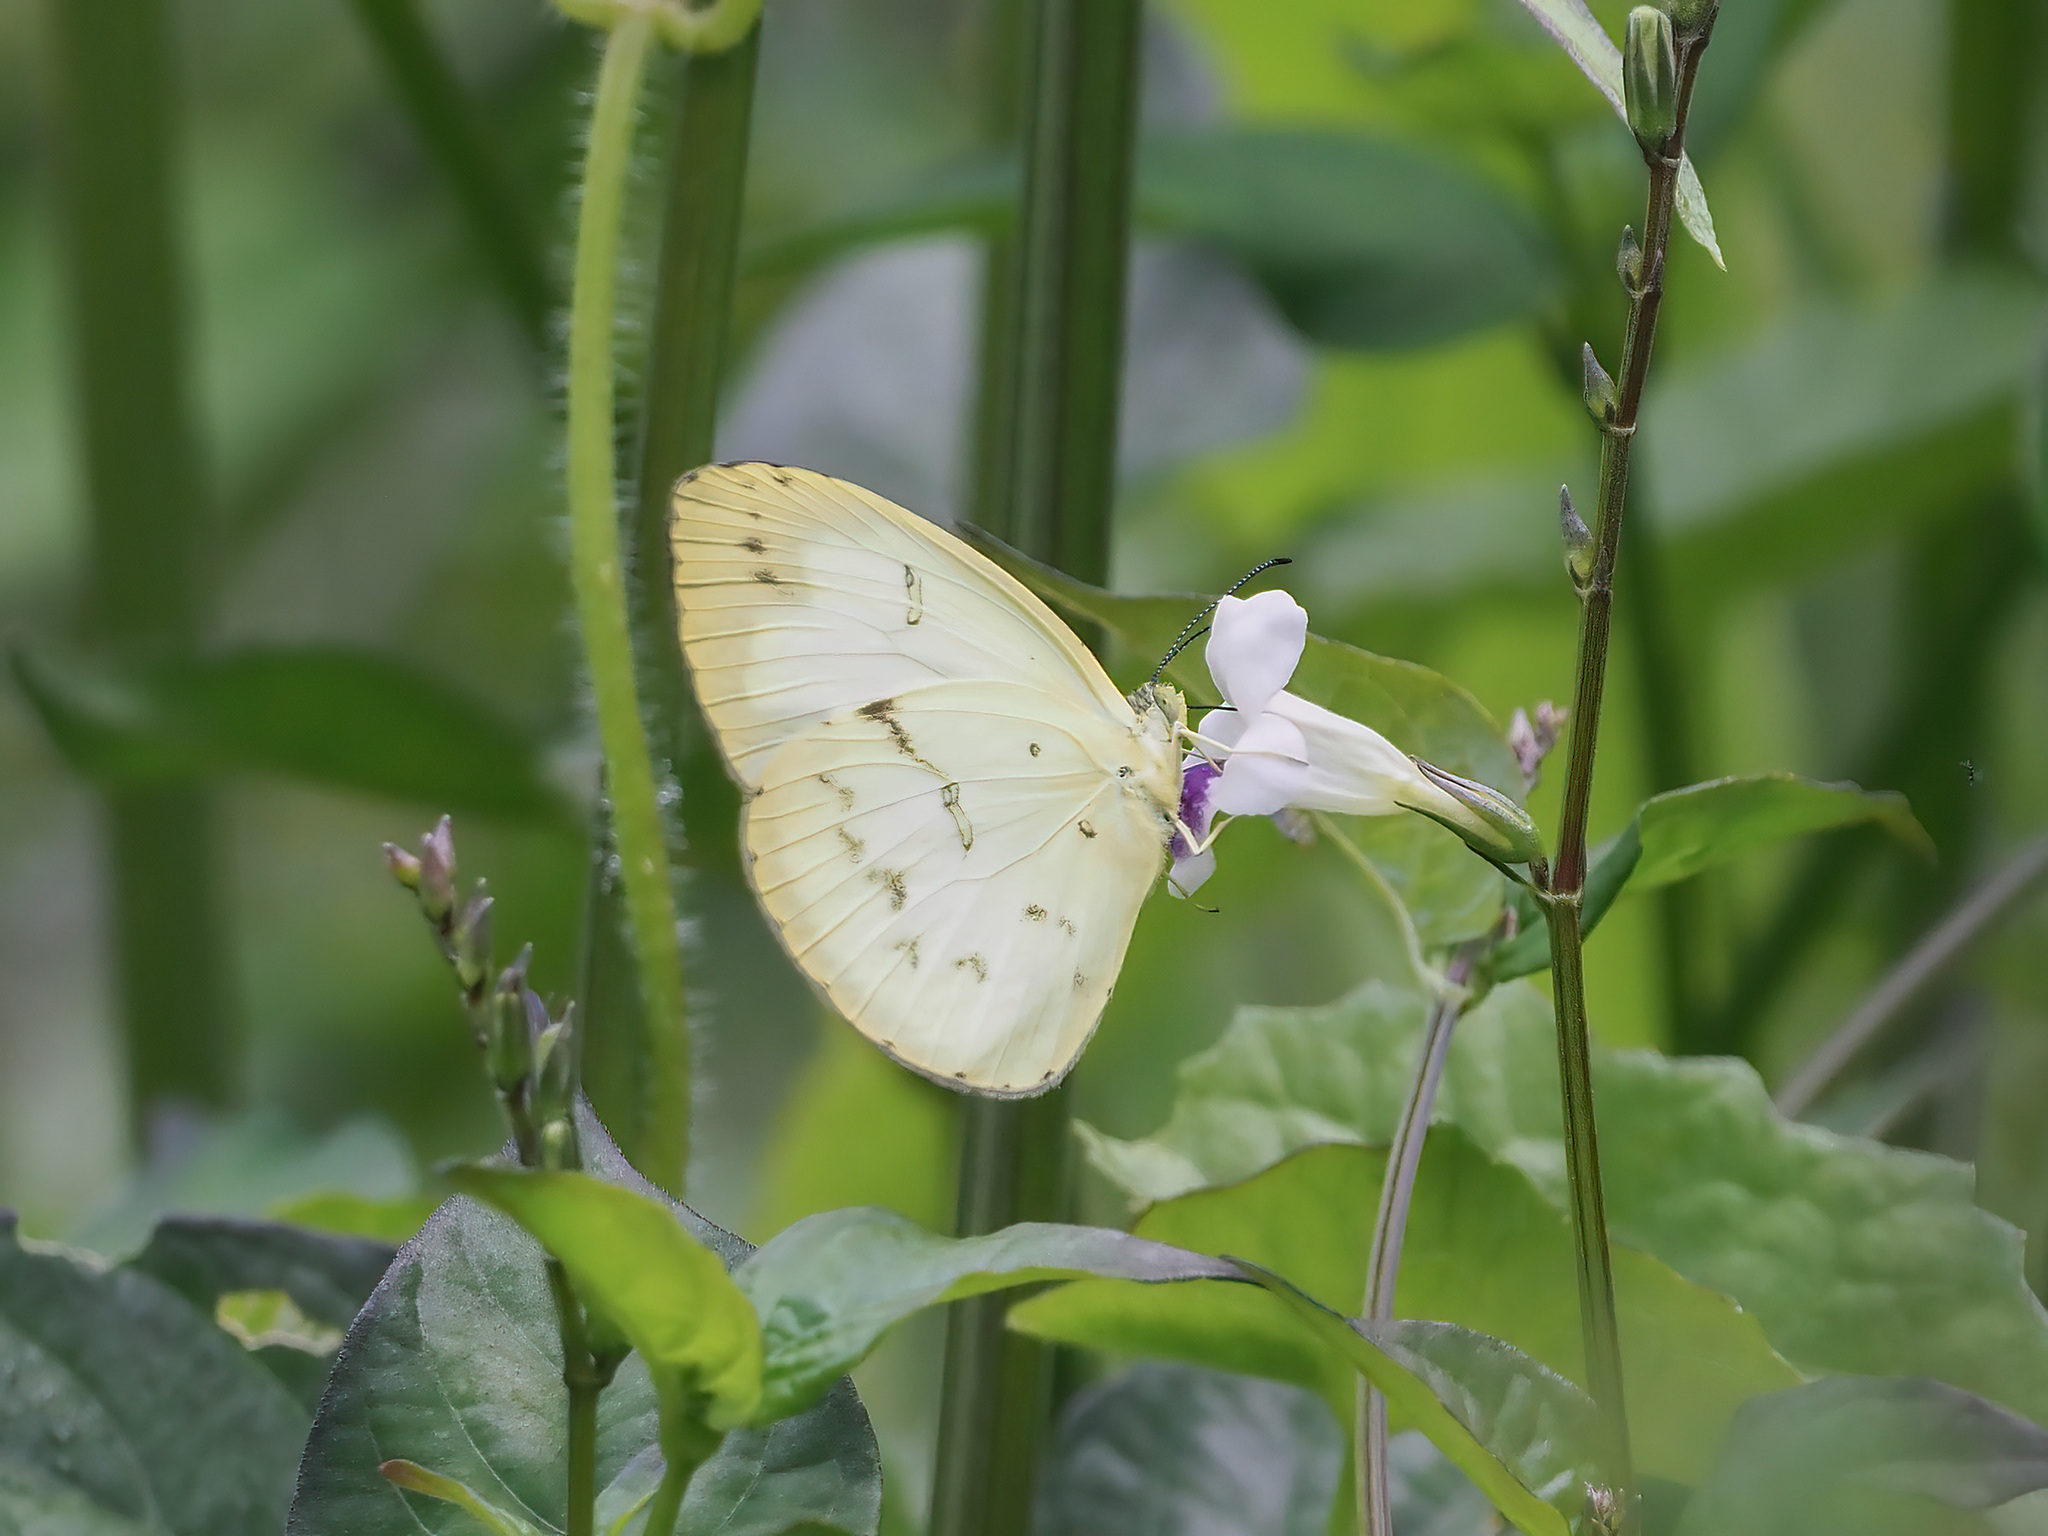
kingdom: Animalia
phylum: Arthropoda
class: Insecta
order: Lepidoptera
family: Pieridae
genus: Eurema
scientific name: Eurema lacteola
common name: Scarce grass yellow
